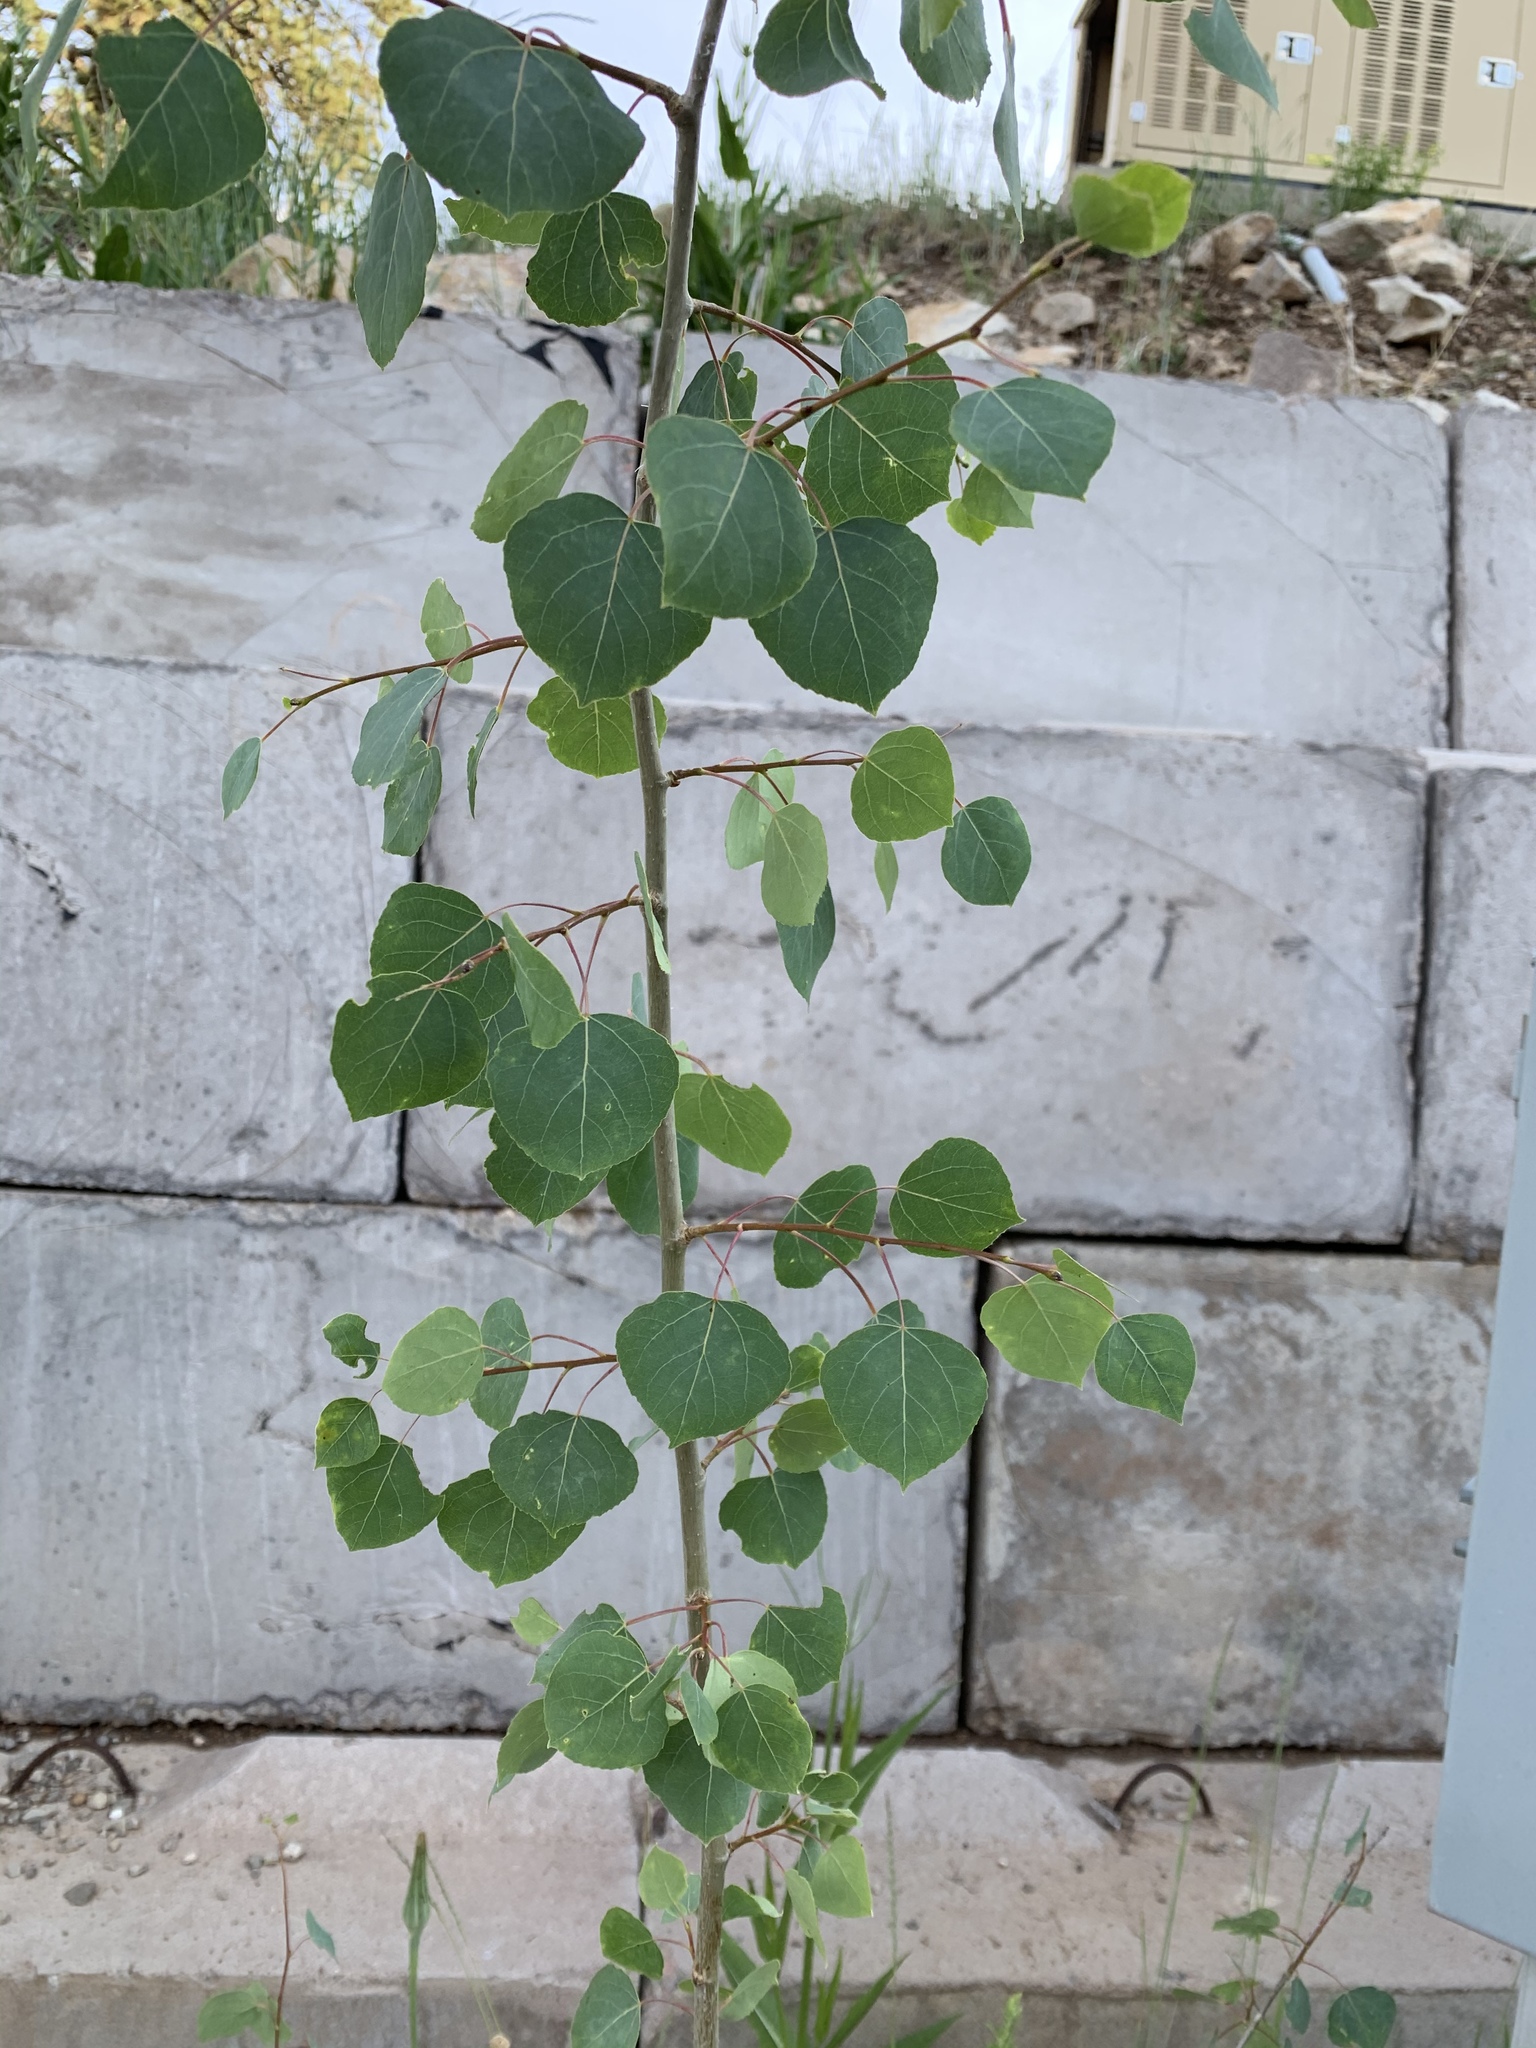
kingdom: Plantae
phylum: Tracheophyta
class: Magnoliopsida
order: Malpighiales
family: Salicaceae
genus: Populus
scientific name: Populus tremuloides
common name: Quaking aspen
